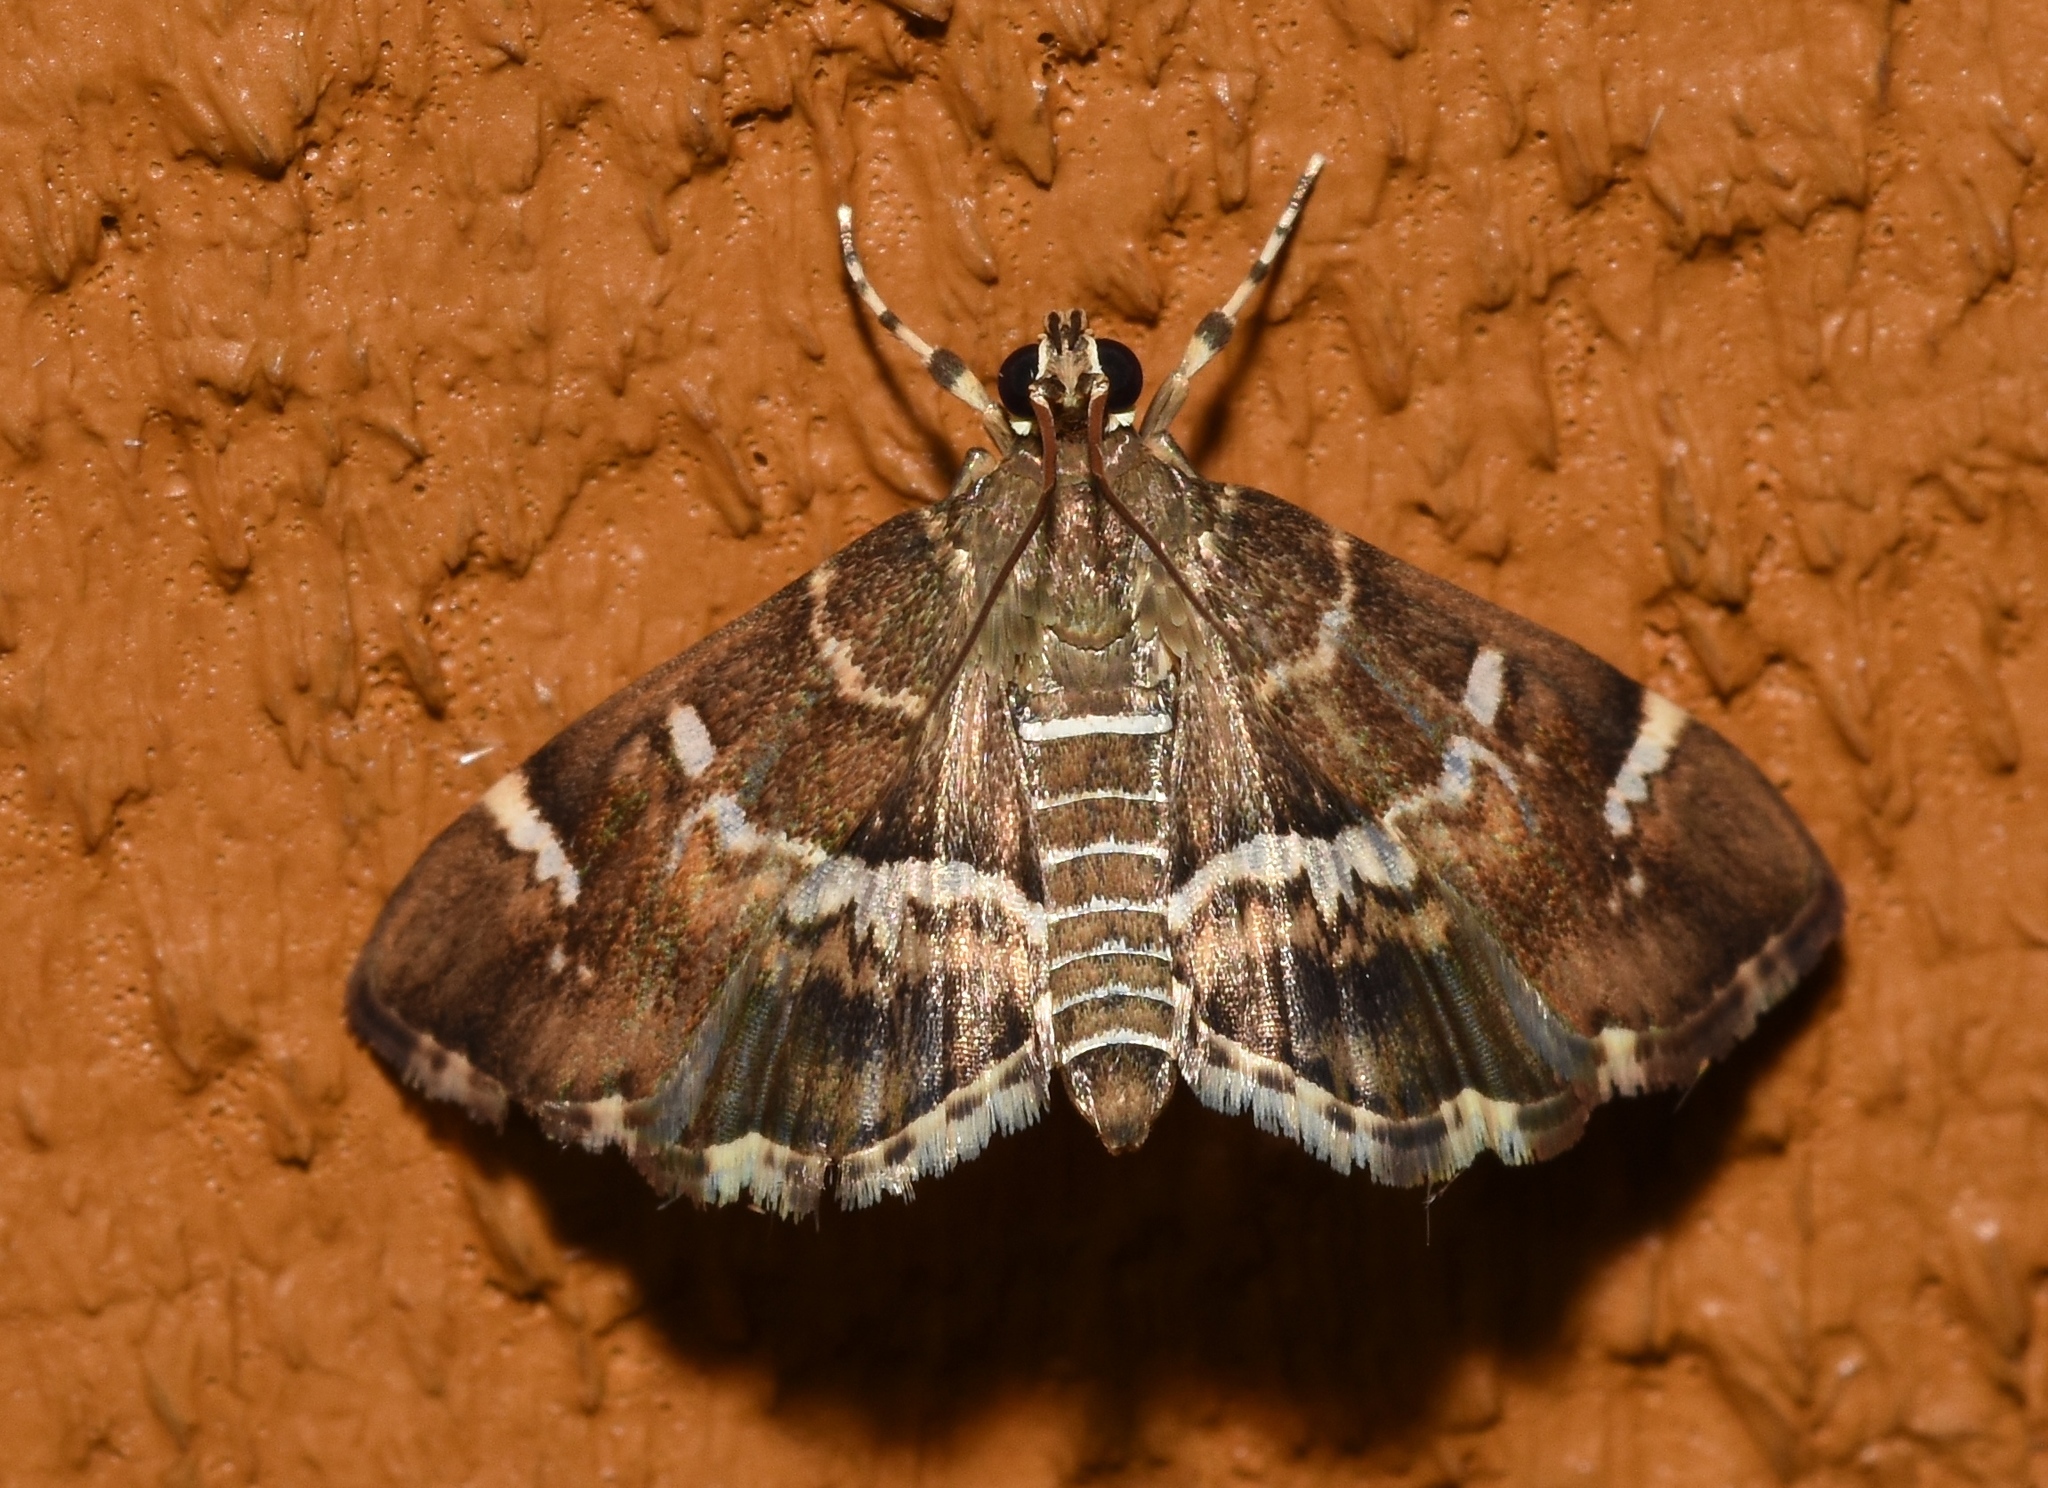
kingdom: Animalia
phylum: Arthropoda
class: Insecta
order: Lepidoptera
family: Crambidae
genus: Hymenia
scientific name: Hymenia perspectalis
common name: Spotted beet webworm
